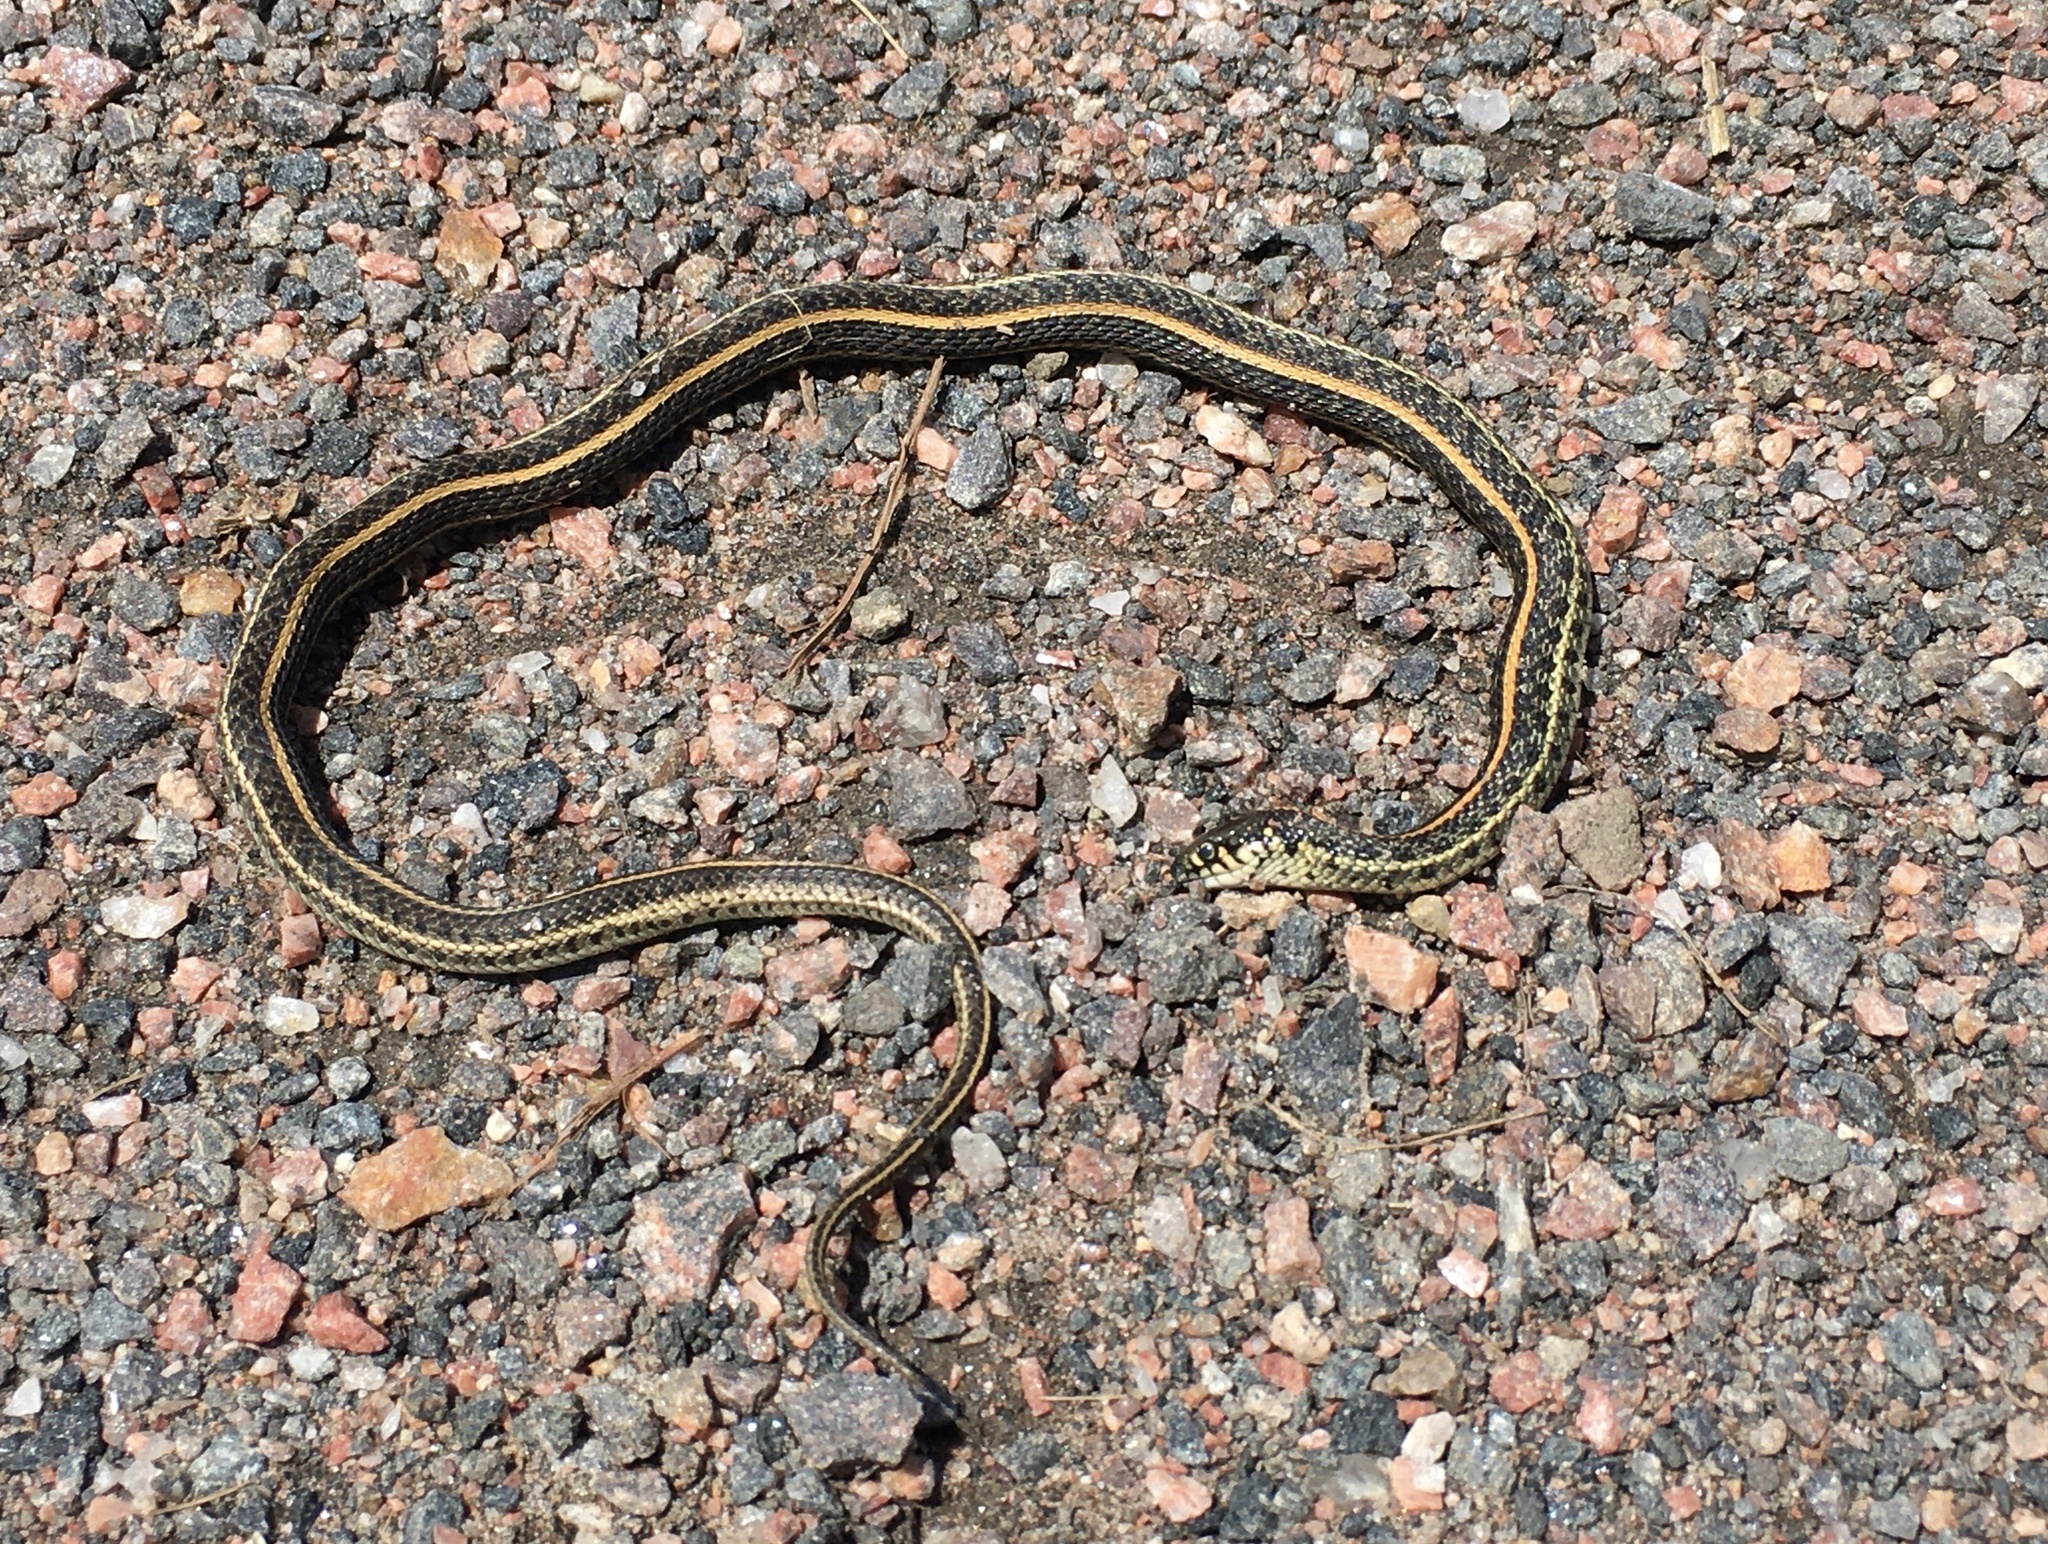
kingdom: Animalia
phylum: Chordata
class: Squamata
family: Colubridae
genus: Thamnophis
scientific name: Thamnophis radix
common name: Plains garter snake
